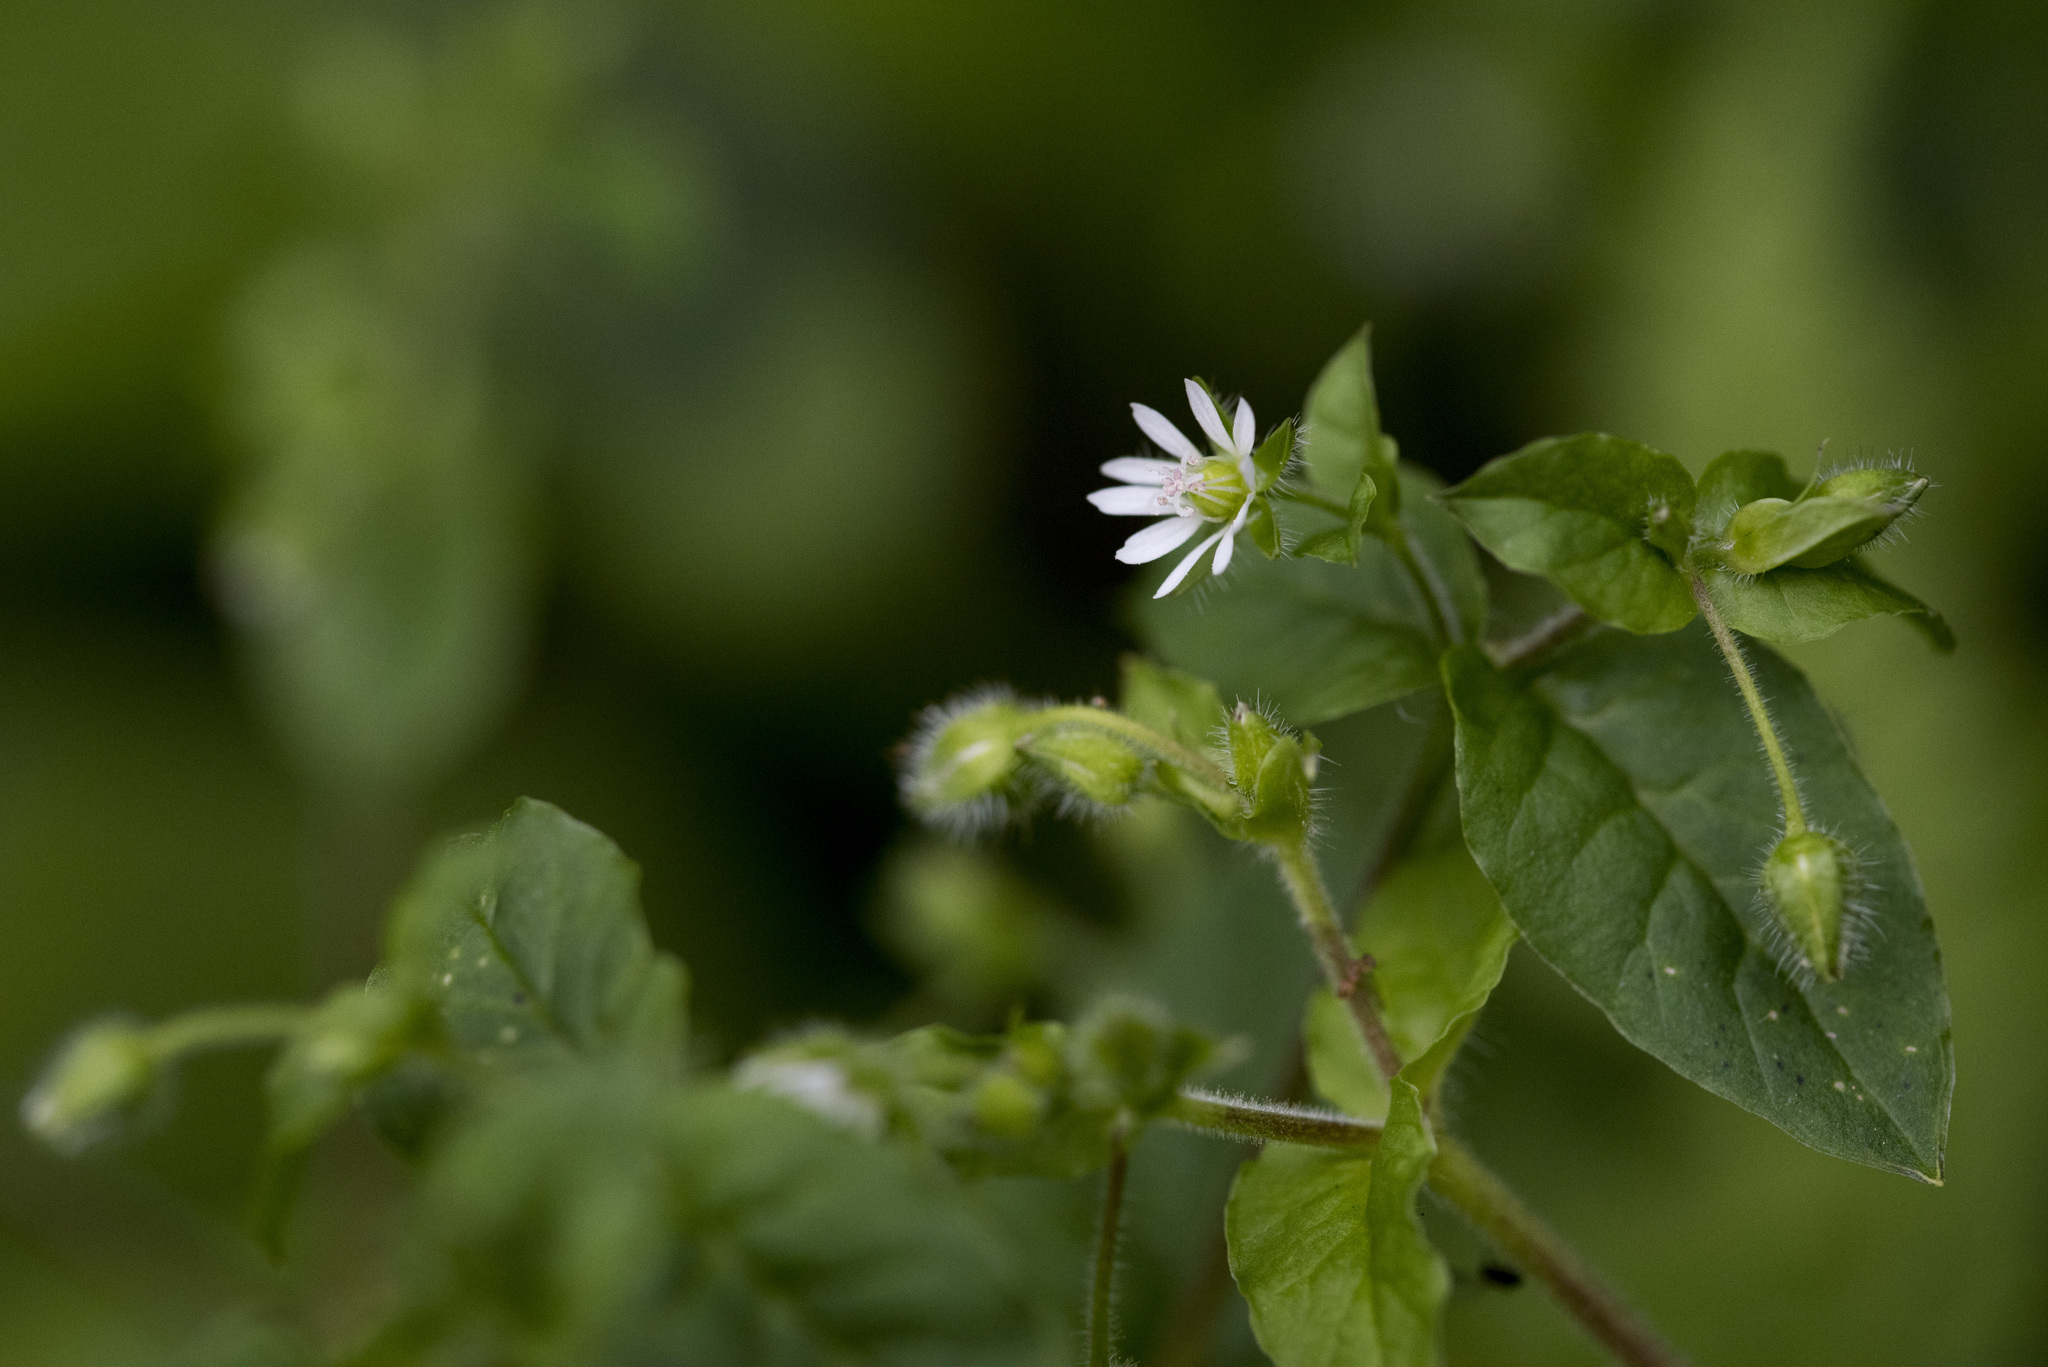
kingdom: Plantae
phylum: Tracheophyta
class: Magnoliopsida
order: Caryophyllales
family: Caryophyllaceae
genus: Stellaria
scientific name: Stellaria aquatica
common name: Water chickweed
